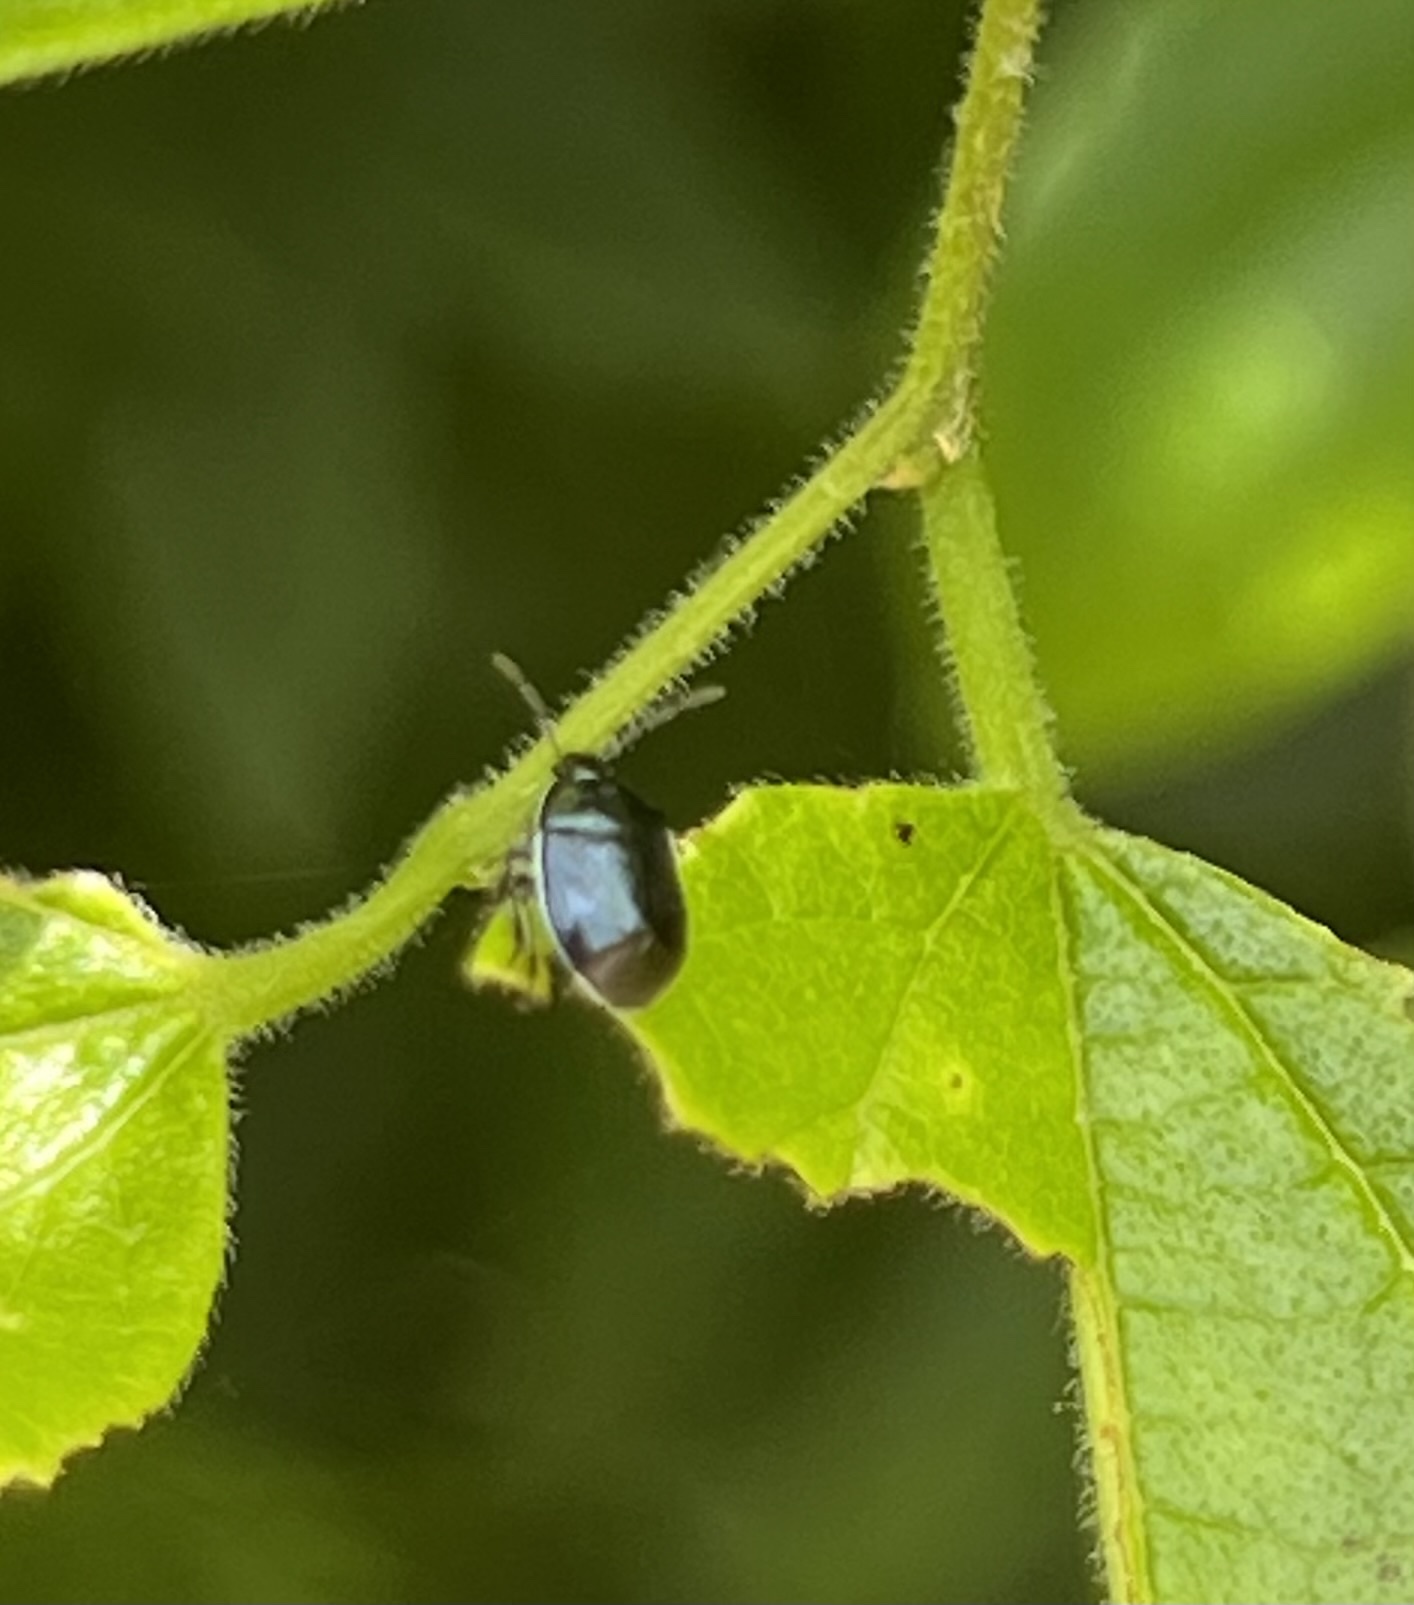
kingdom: Animalia
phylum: Arthropoda
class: Insecta
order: Hemiptera
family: Cydnidae
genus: Sehirus
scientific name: Sehirus cinctus
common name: White-margined burrower bug
